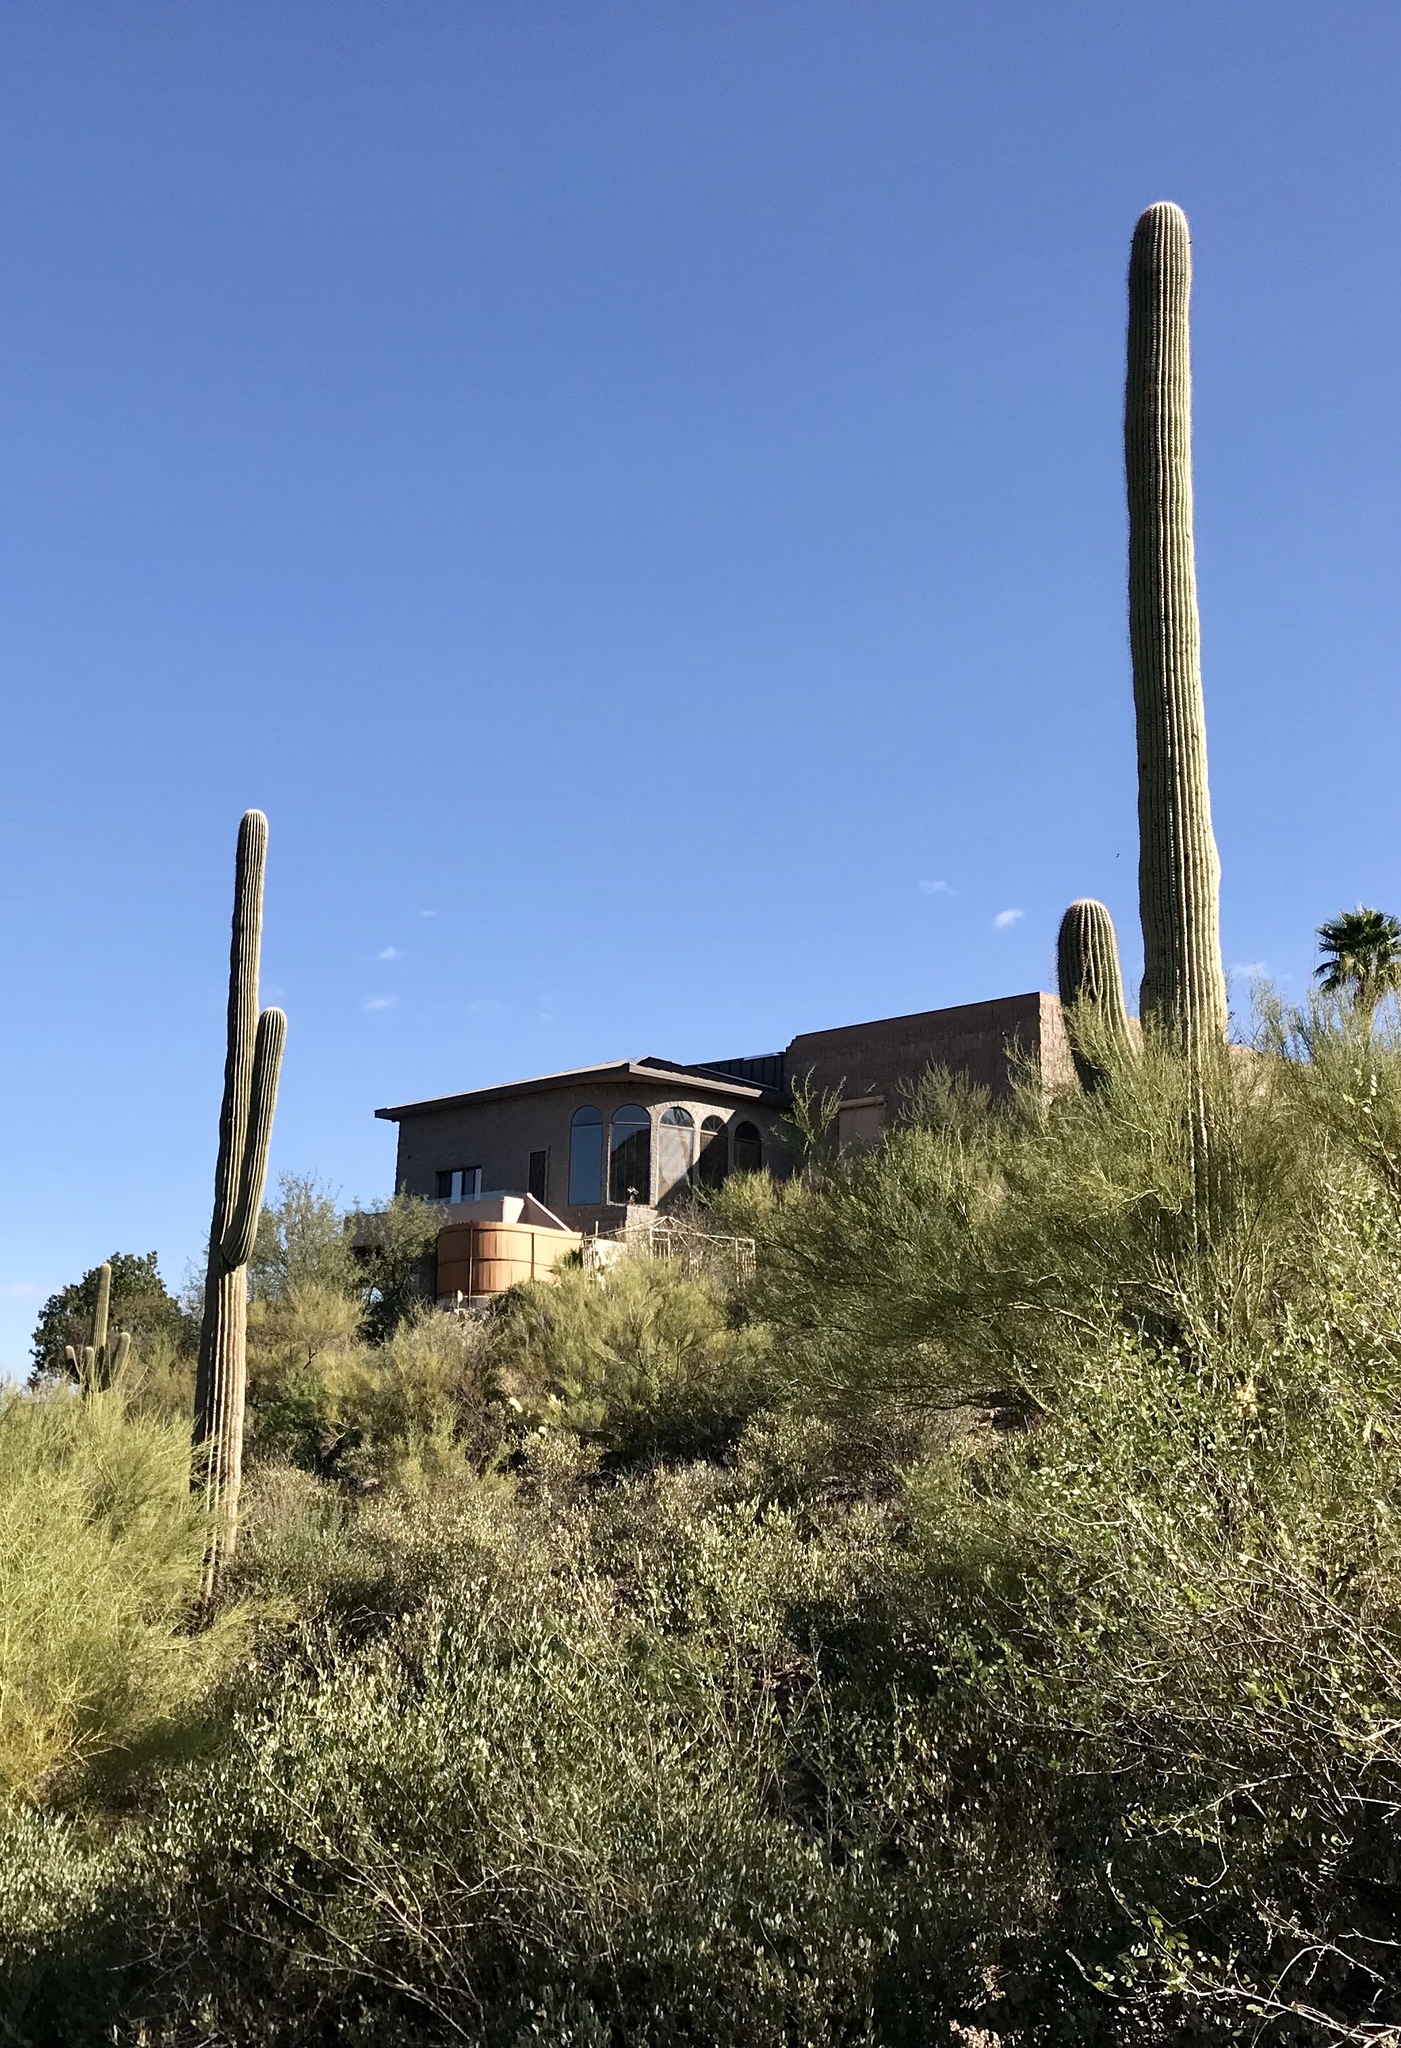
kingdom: Plantae
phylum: Tracheophyta
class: Magnoliopsida
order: Caryophyllales
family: Cactaceae
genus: Carnegiea
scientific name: Carnegiea gigantea
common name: Saguaro
